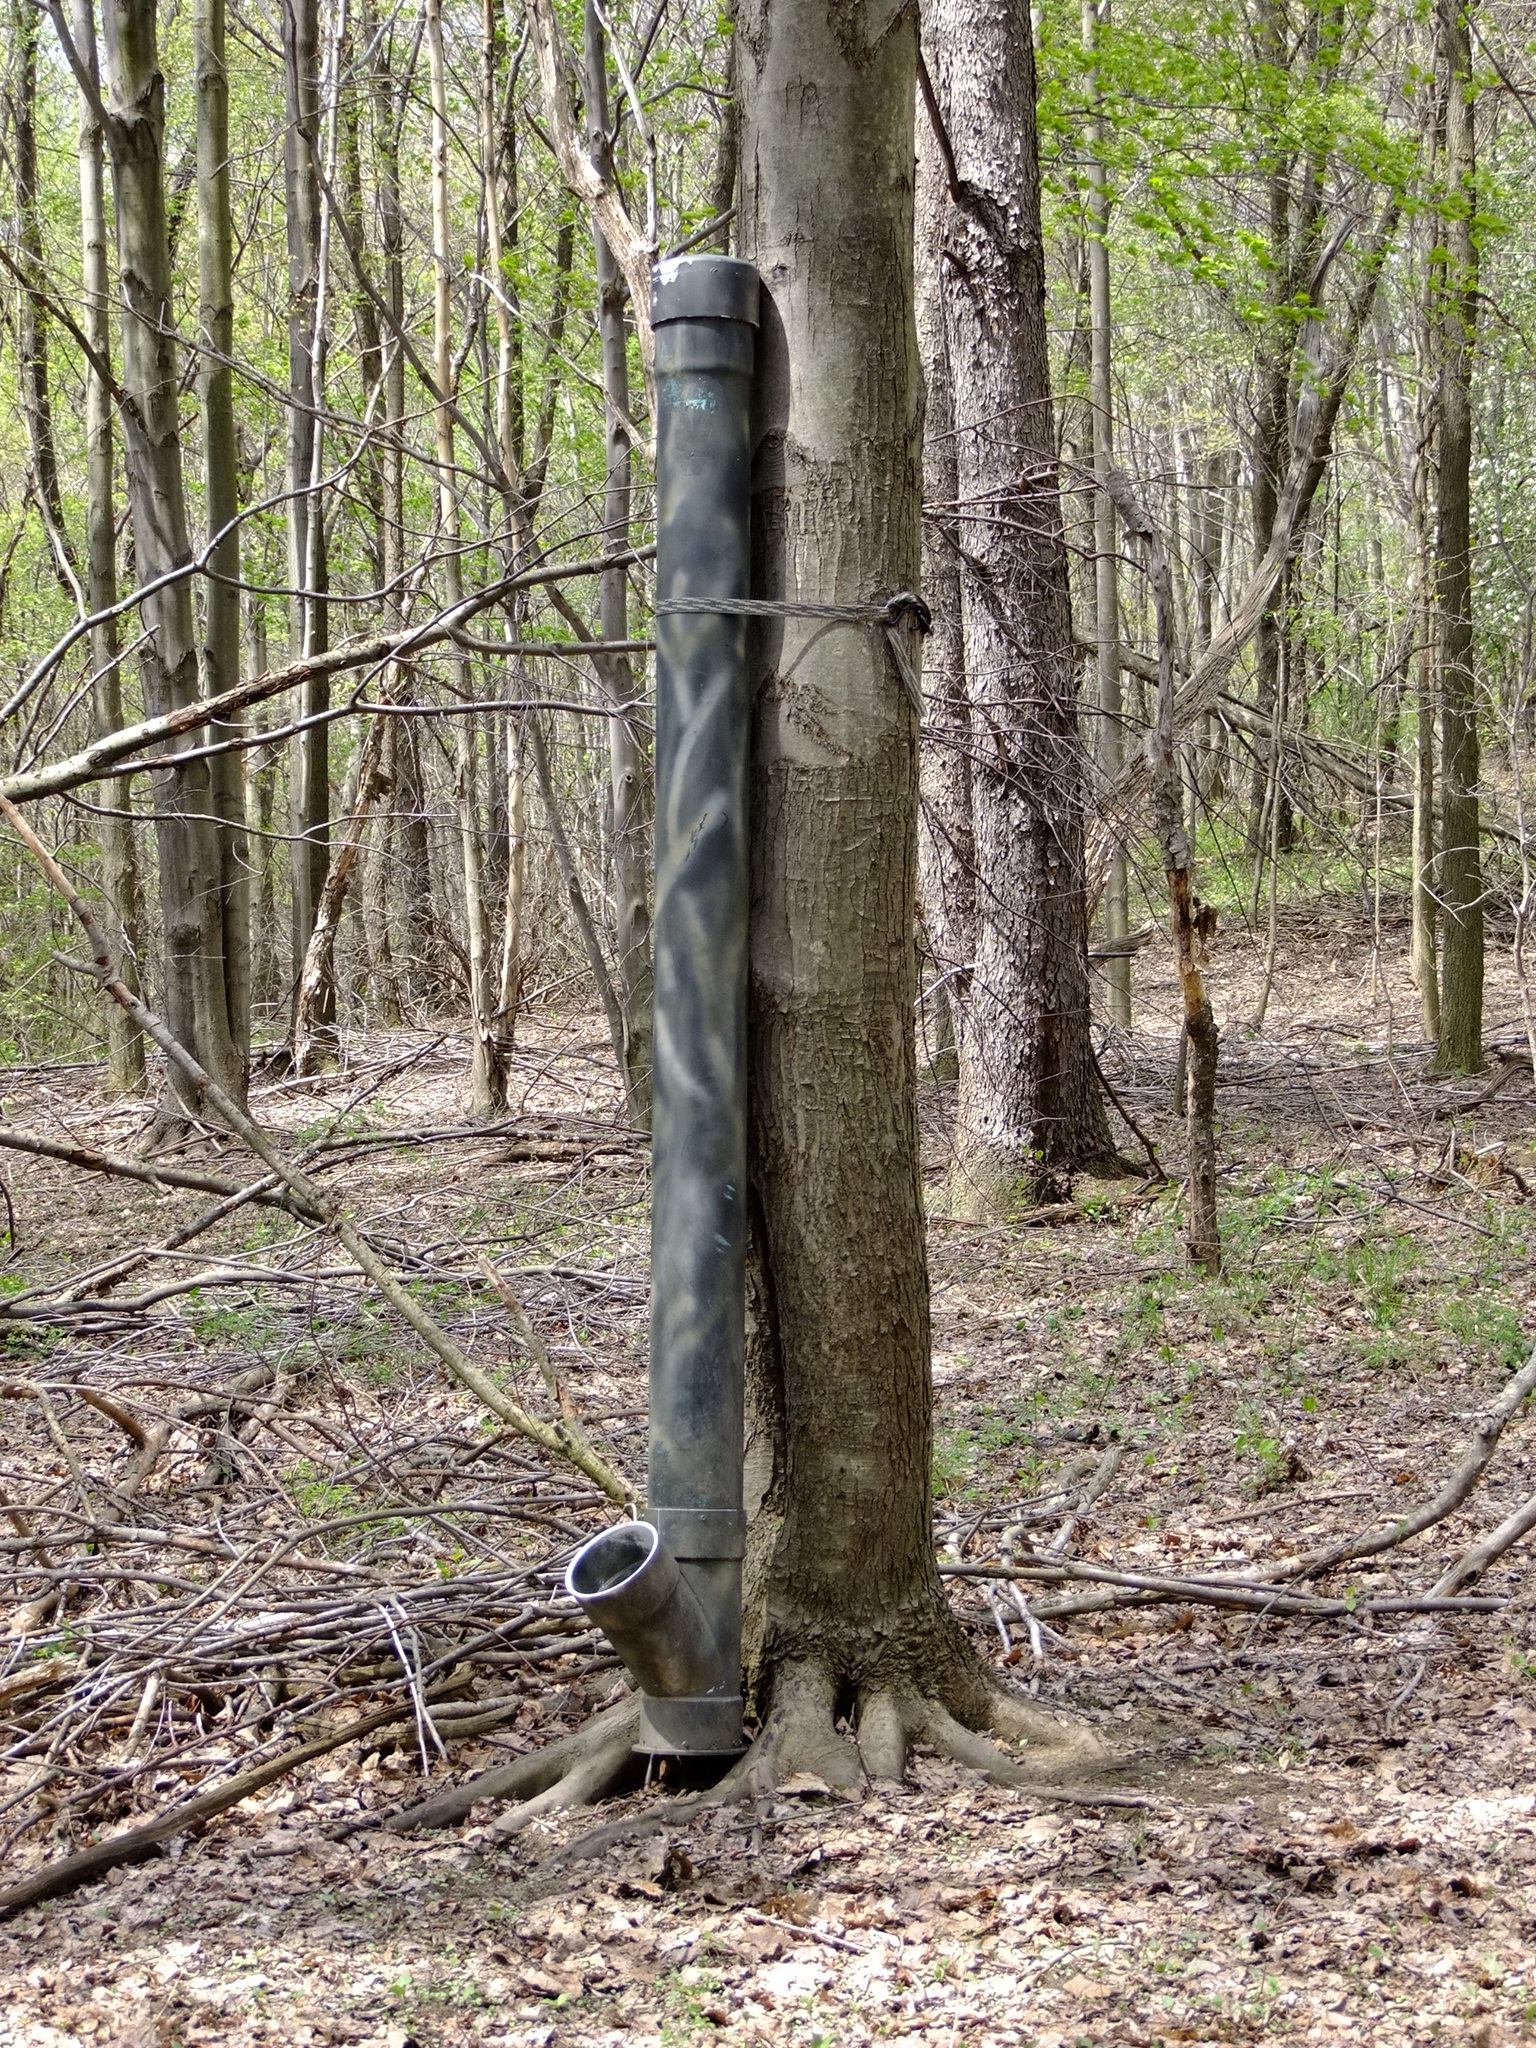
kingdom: Plantae
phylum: Tracheophyta
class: Magnoliopsida
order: Sapindales
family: Sapindaceae
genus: Acer
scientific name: Acer rubrum
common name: Red maple
